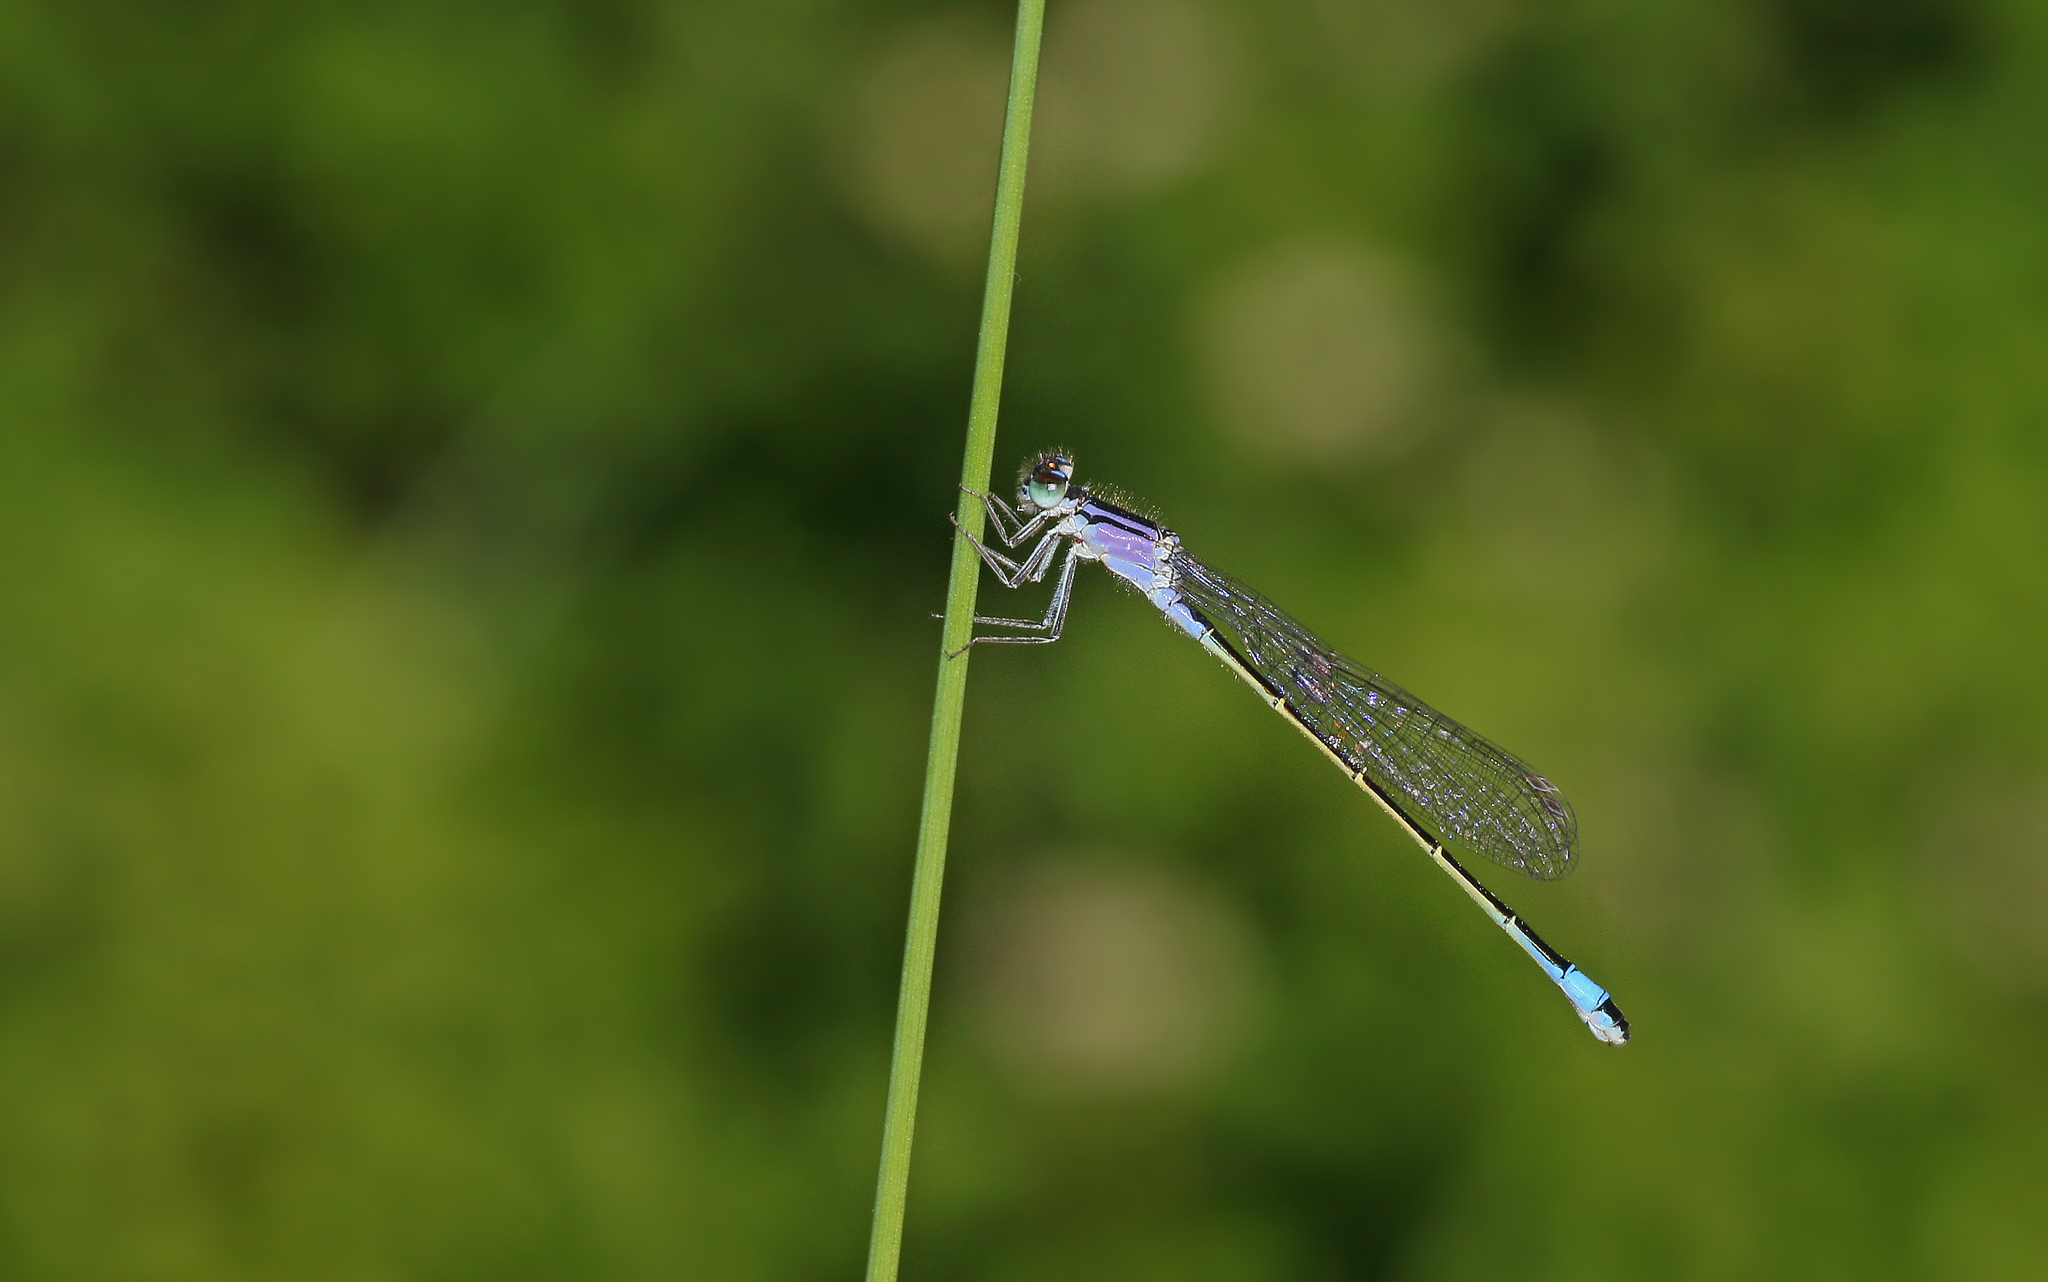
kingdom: Animalia
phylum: Arthropoda
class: Insecta
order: Odonata
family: Coenagrionidae
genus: Ischnura
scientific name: Ischnura elegans
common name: Blue-tailed damselfly
